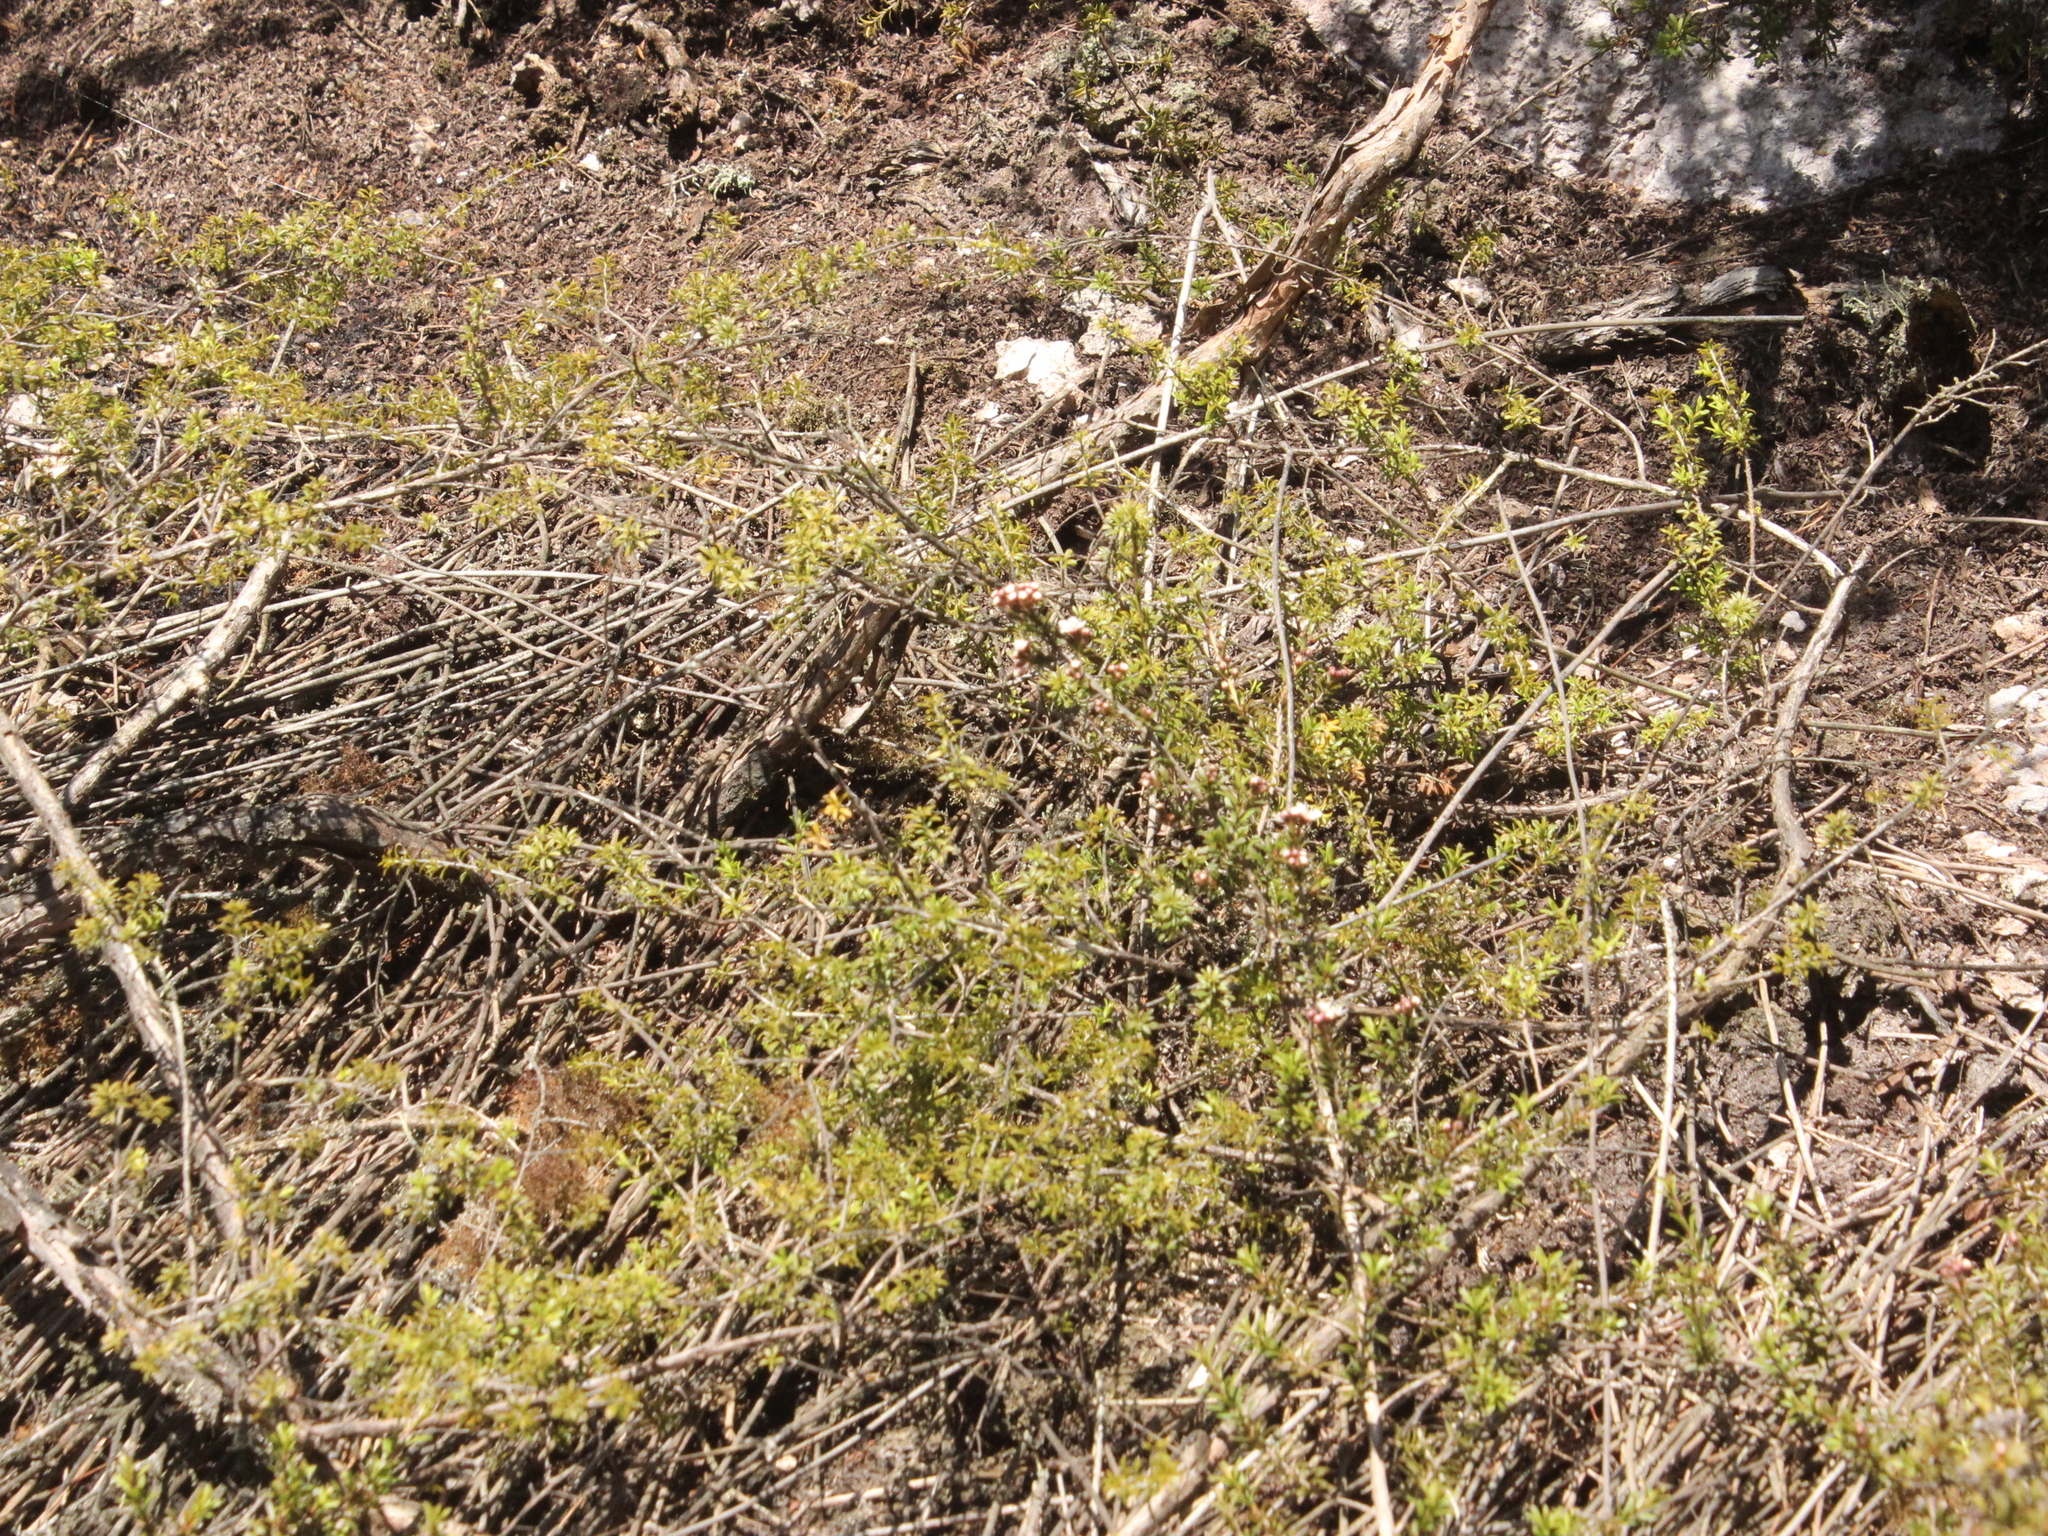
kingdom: Plantae
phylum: Tracheophyta
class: Magnoliopsida
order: Myrtales
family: Myrtaceae
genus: Kunzea
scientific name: Kunzea tenuicaulis
